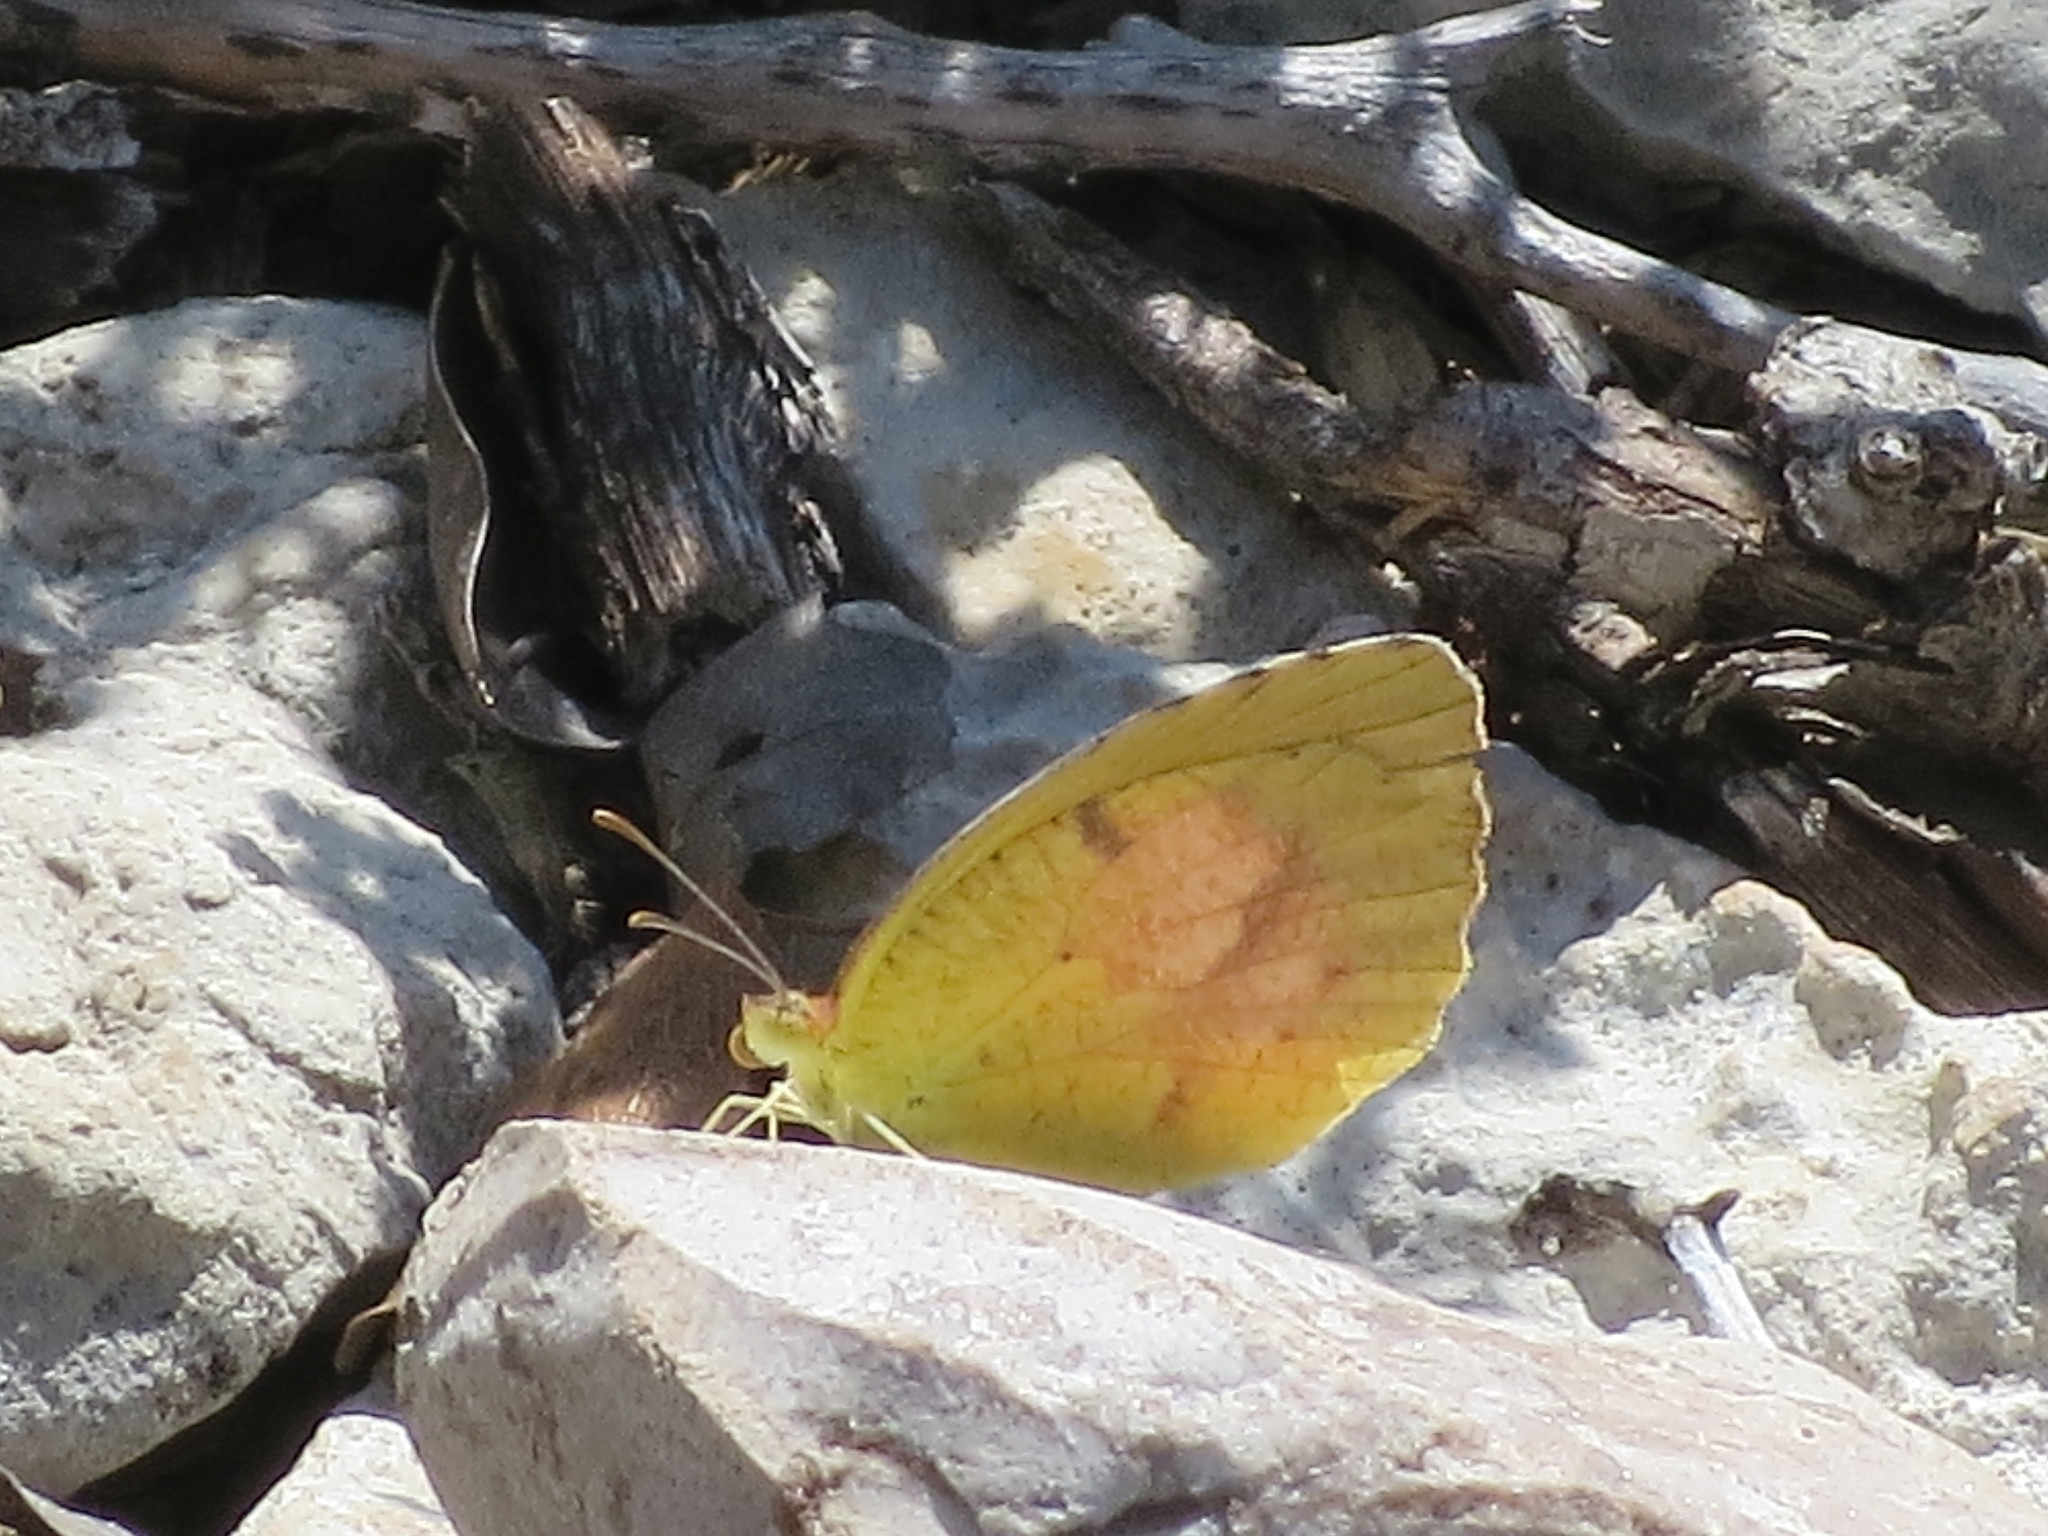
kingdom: Animalia
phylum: Arthropoda
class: Insecta
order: Lepidoptera
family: Pieridae
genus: Abaeis
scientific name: Abaeis nicippe
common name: Sleepy orange
